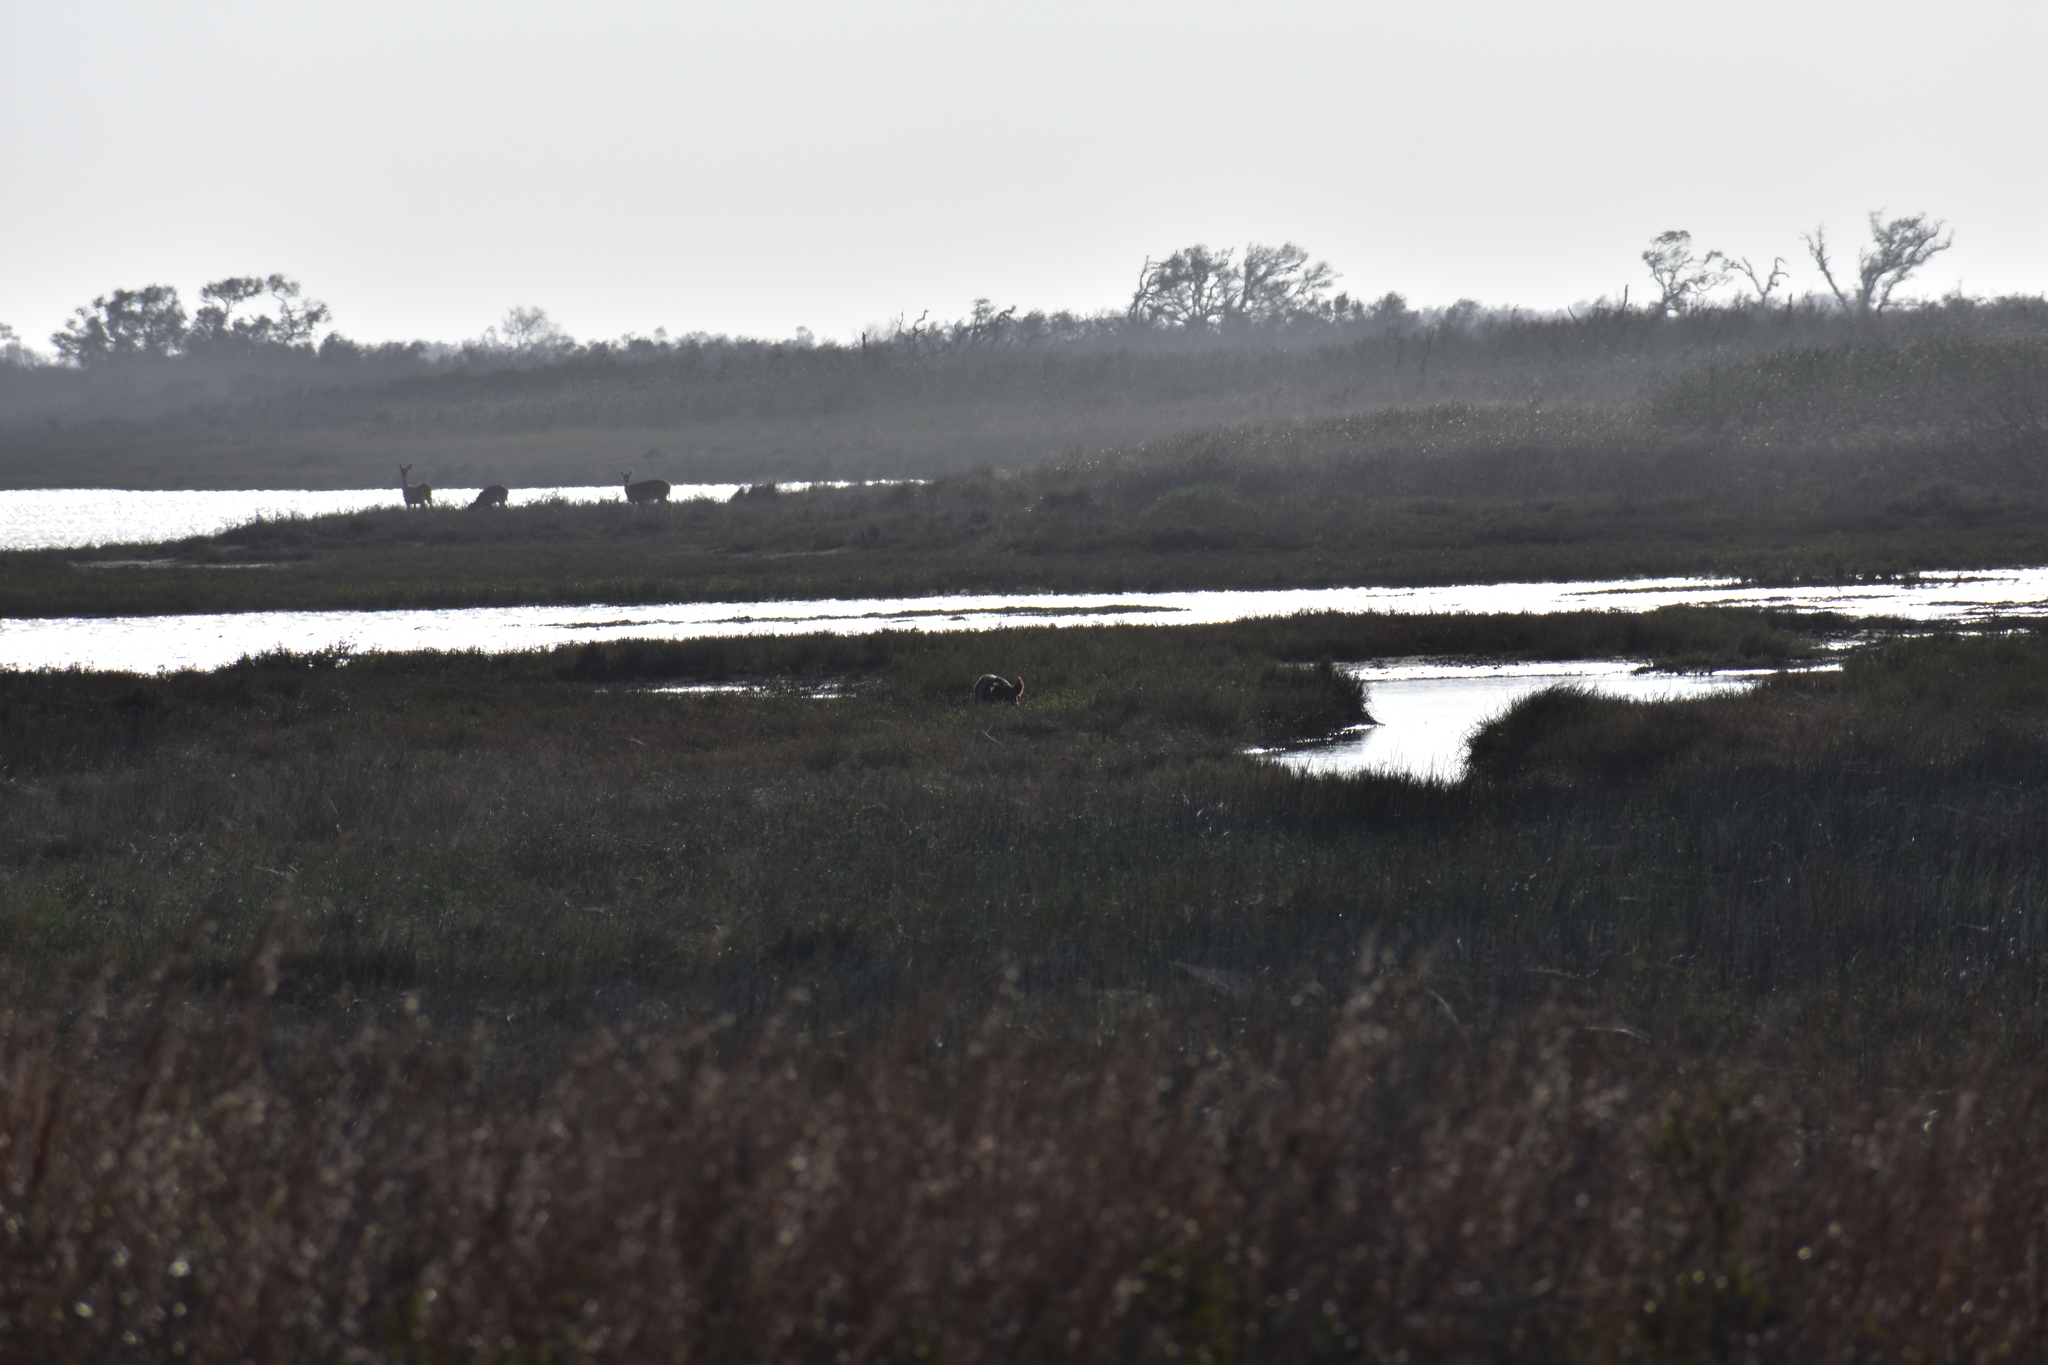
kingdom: Animalia
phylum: Chordata
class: Mammalia
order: Artiodactyla
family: Suidae
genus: Sus
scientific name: Sus scrofa
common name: Wild boar
